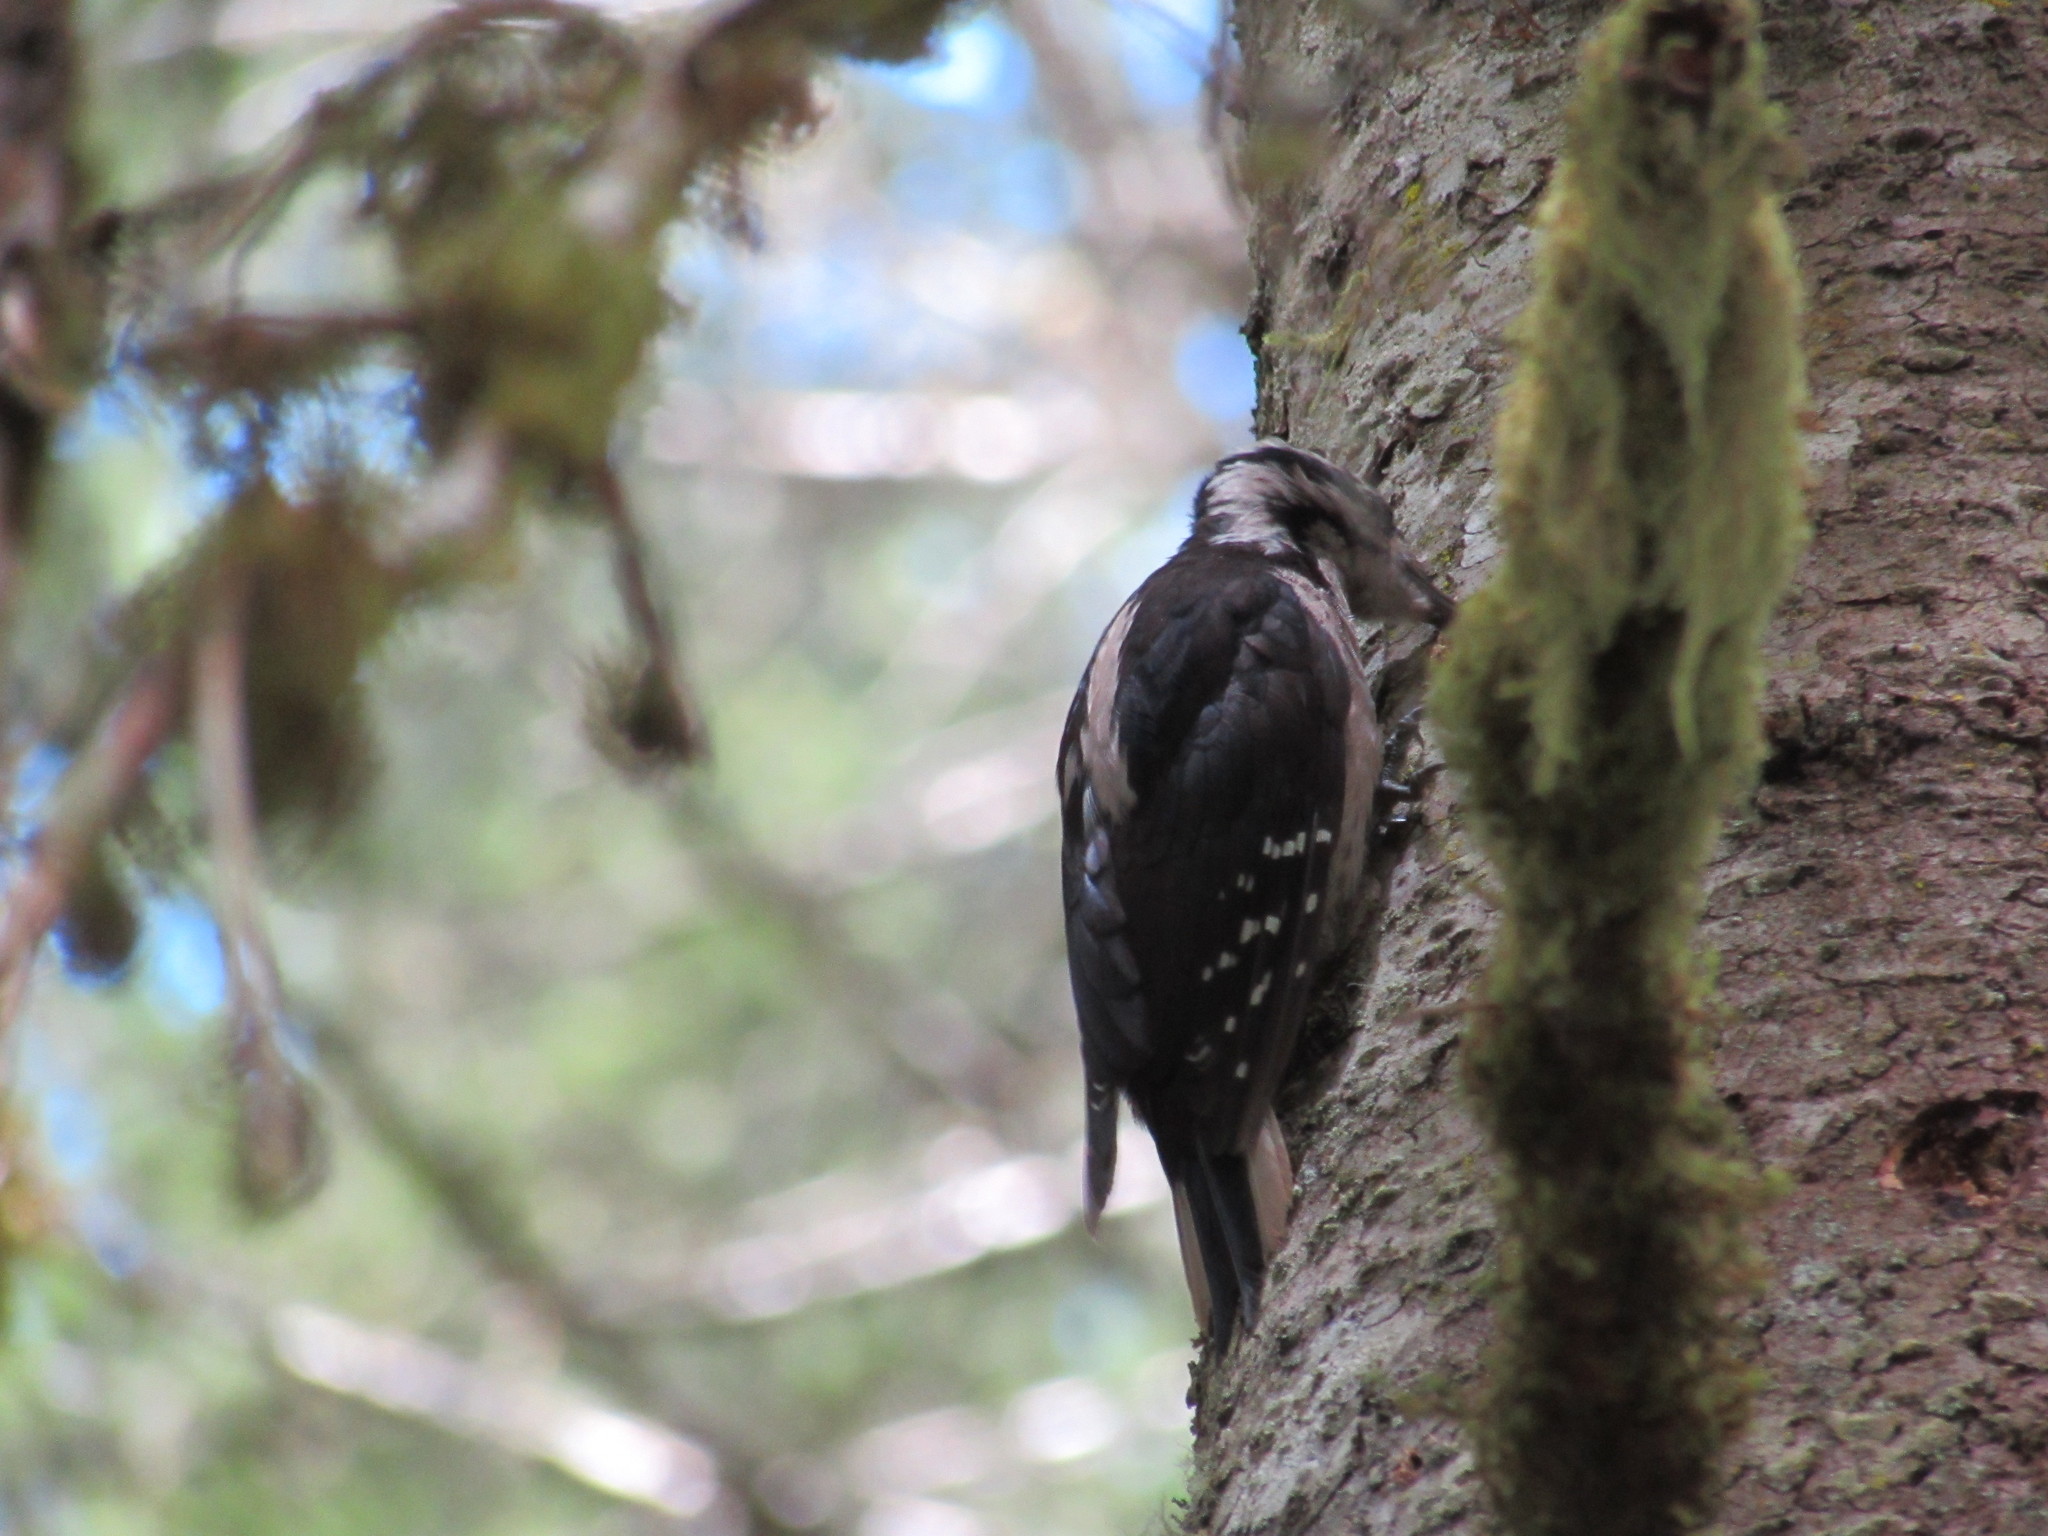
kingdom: Animalia
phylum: Chordata
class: Aves
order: Piciformes
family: Picidae
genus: Dryobates
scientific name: Dryobates pubescens
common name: Downy woodpecker
